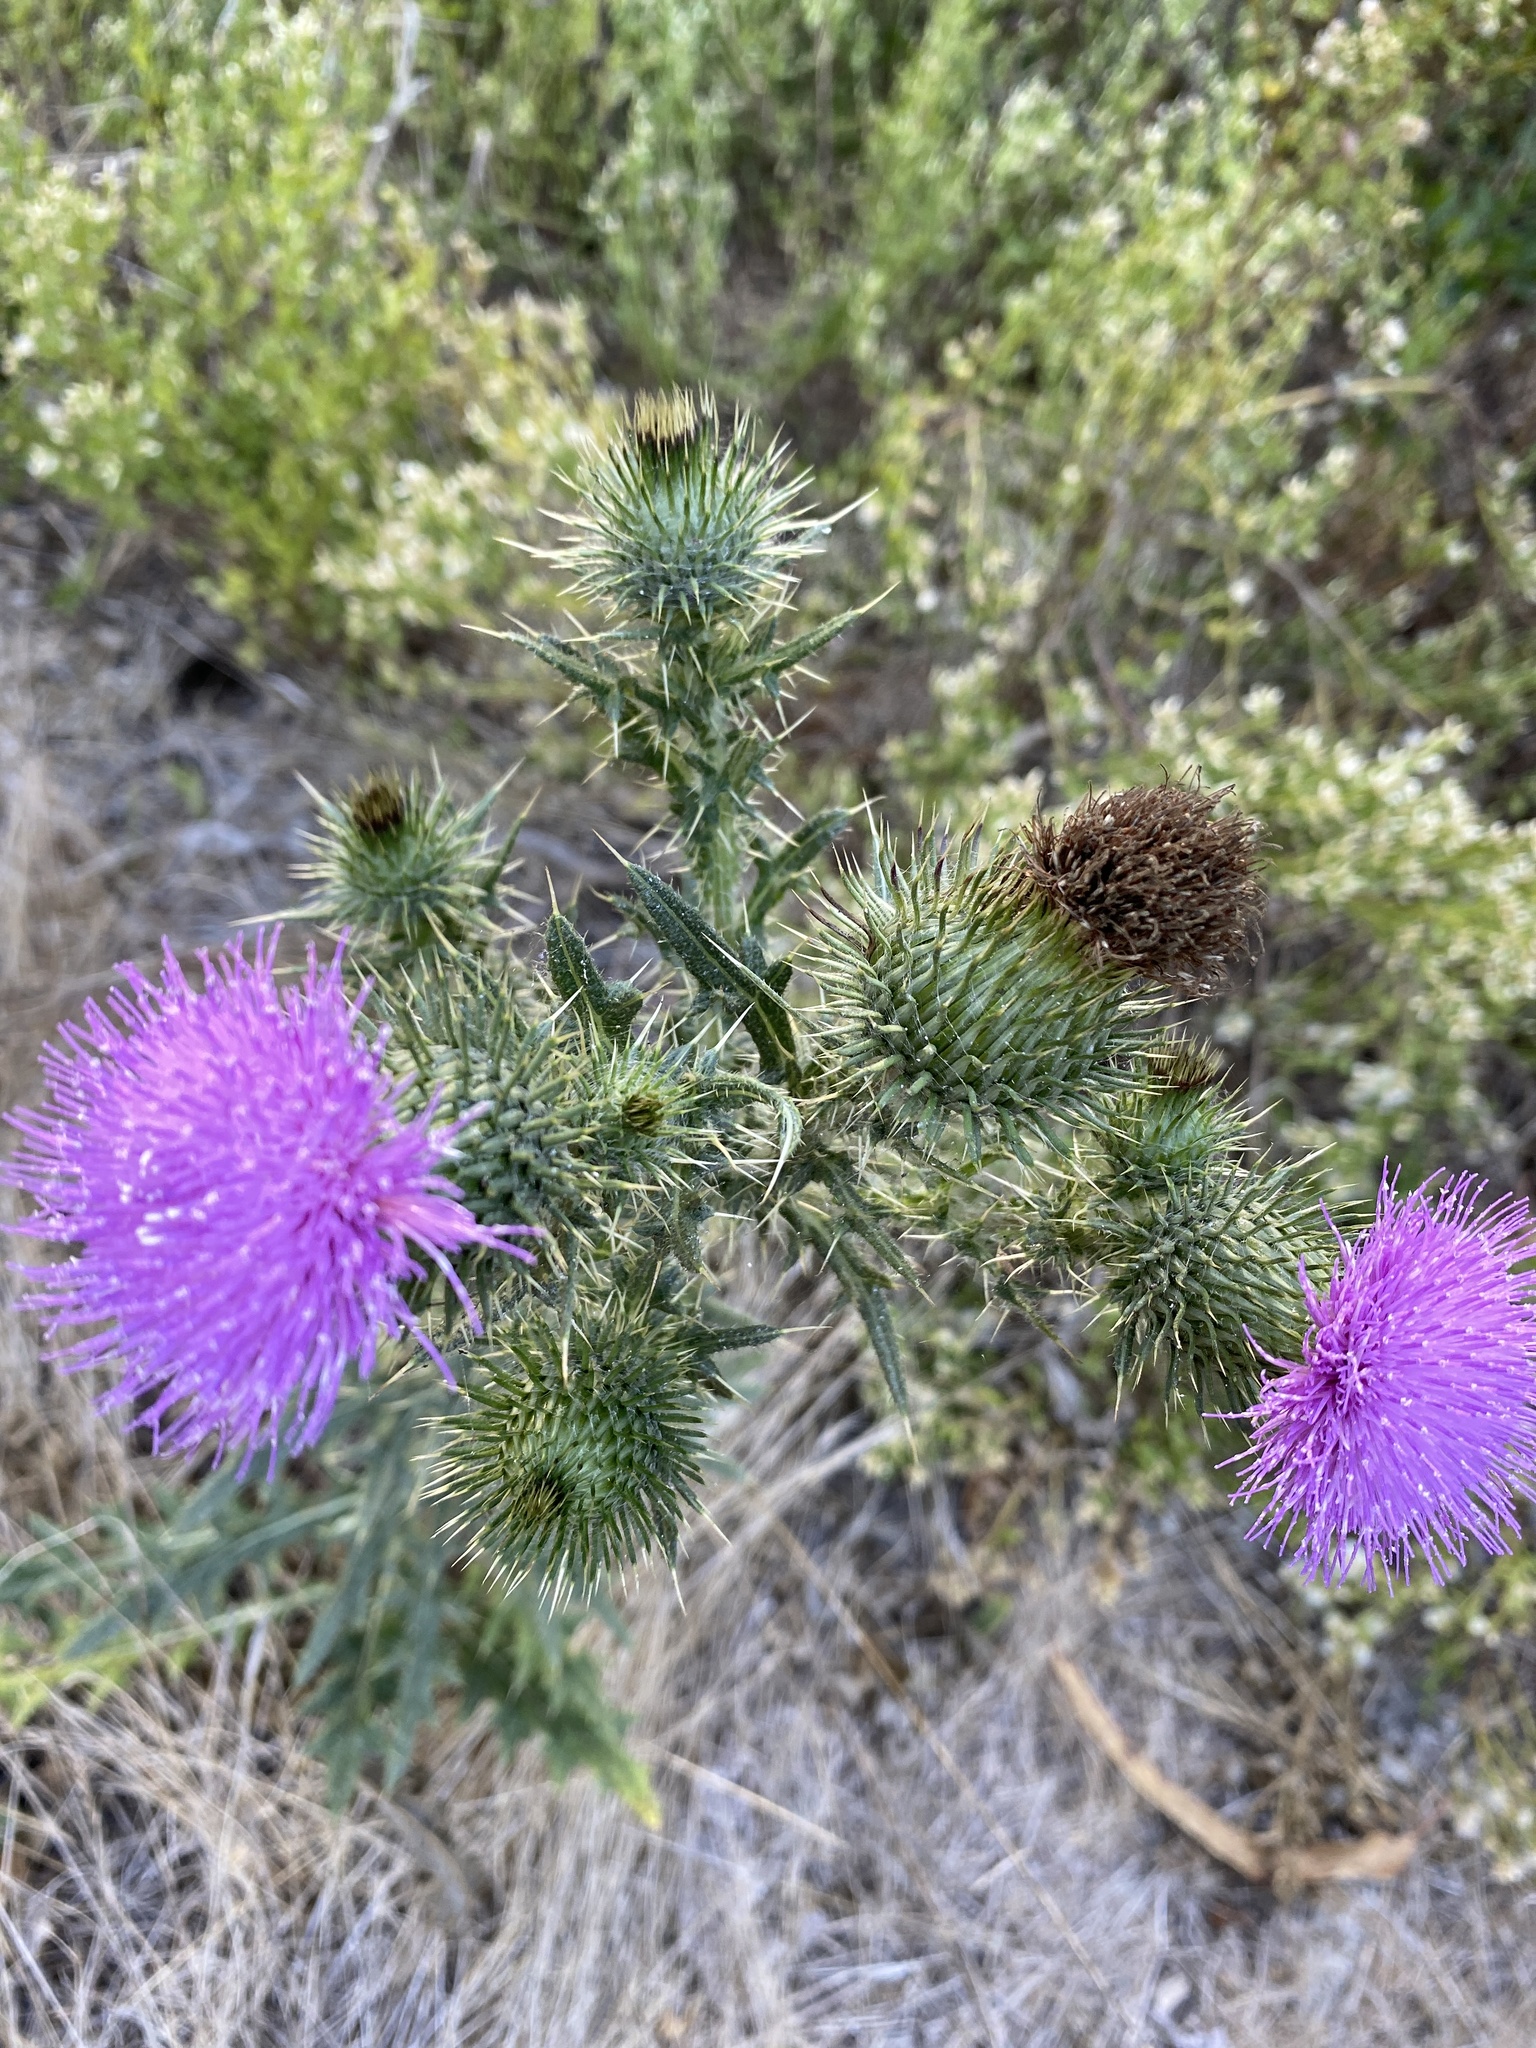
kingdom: Plantae
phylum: Tracheophyta
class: Magnoliopsida
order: Asterales
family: Asteraceae
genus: Cirsium
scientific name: Cirsium vulgare
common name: Bull thistle
